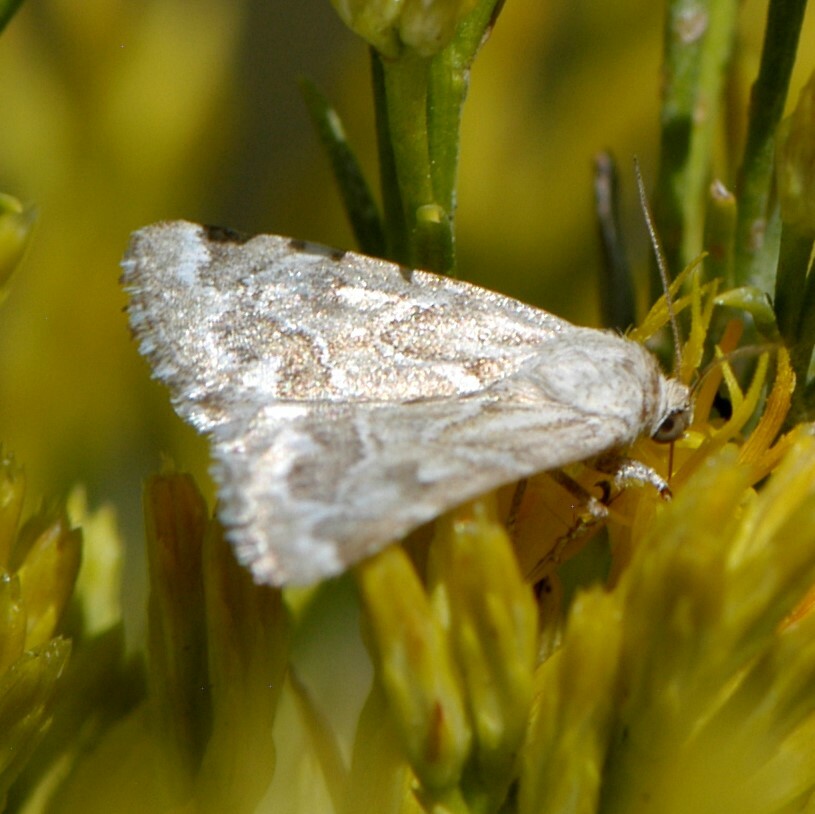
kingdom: Animalia
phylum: Arthropoda
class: Insecta
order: Lepidoptera
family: Noctuidae
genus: Schinia
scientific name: Schinia acutilinea
